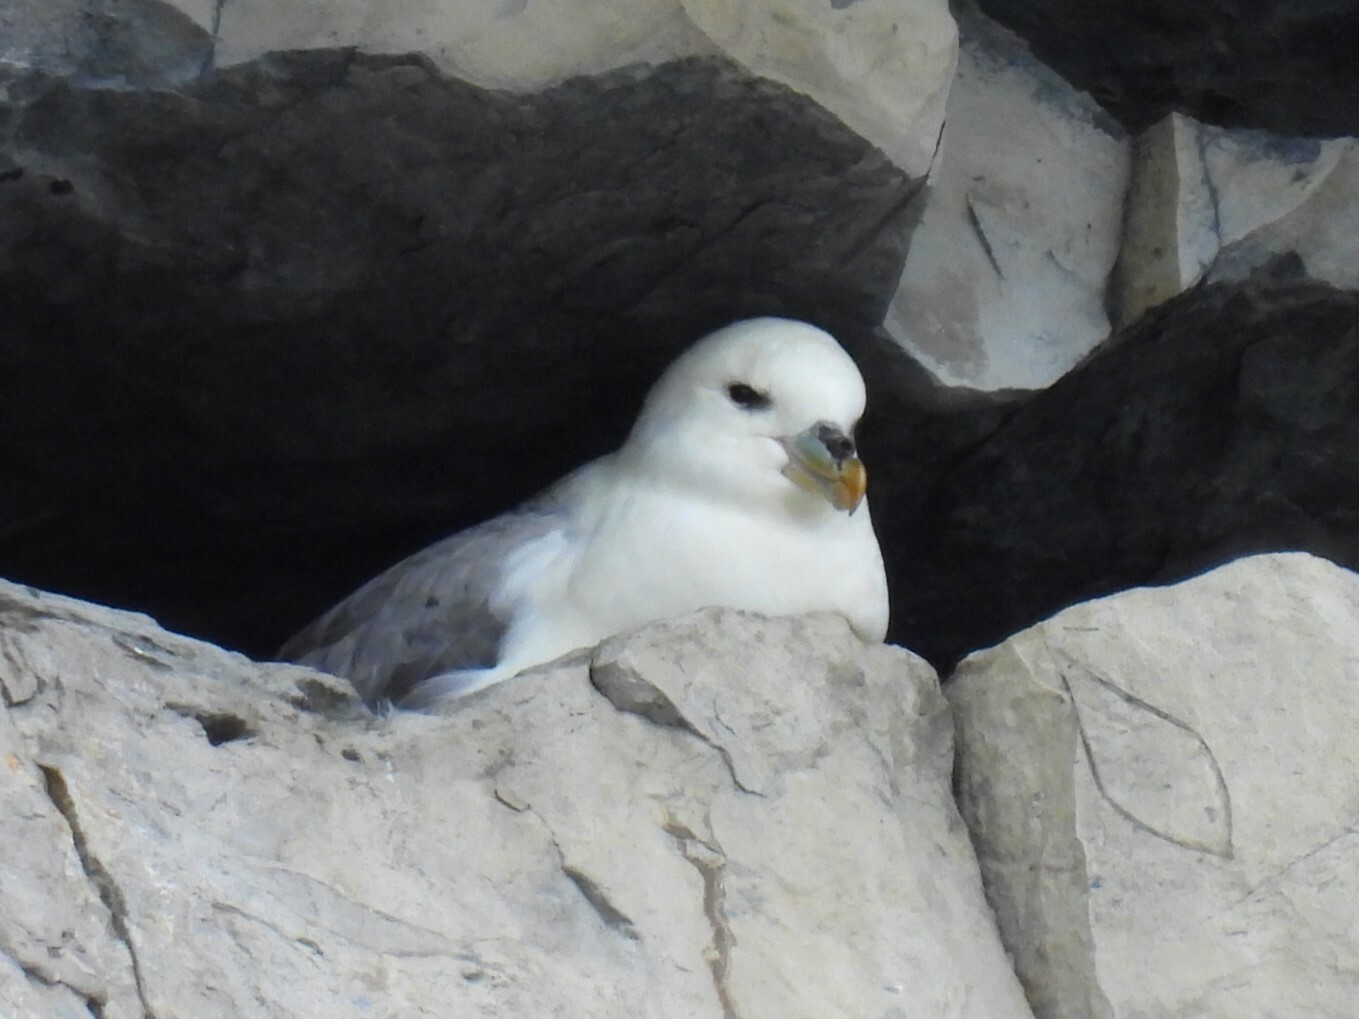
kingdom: Animalia
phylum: Chordata
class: Aves
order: Procellariiformes
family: Procellariidae
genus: Fulmarus
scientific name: Fulmarus glacialis
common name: Northern fulmar
